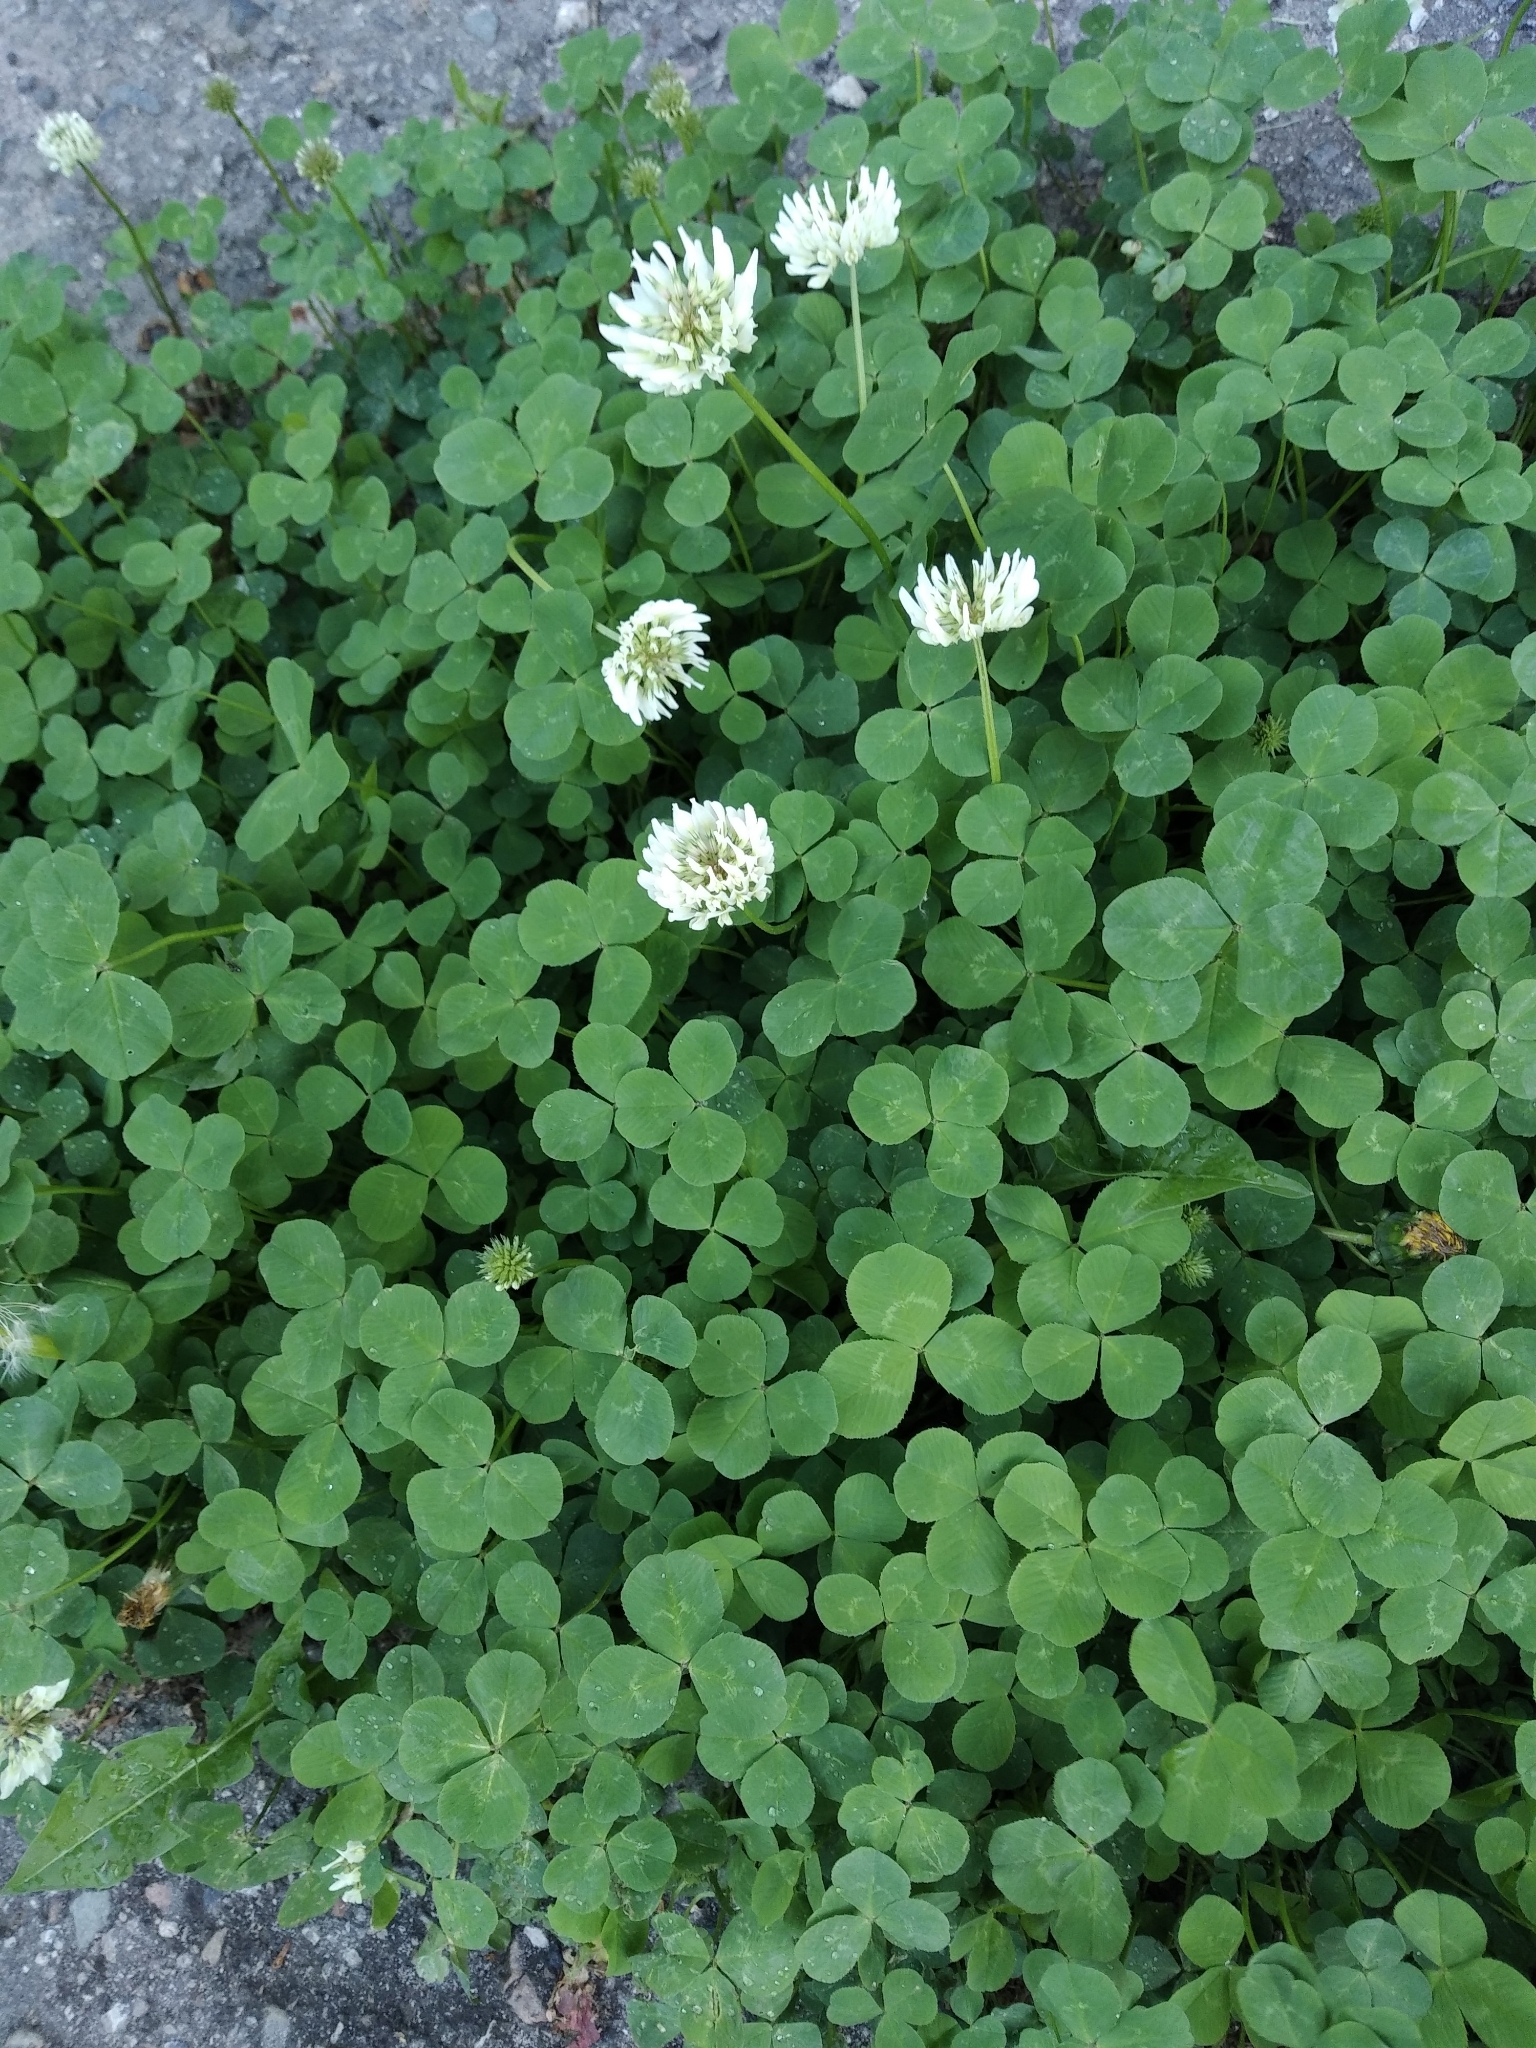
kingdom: Plantae
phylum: Tracheophyta
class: Magnoliopsida
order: Fabales
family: Fabaceae
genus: Trifolium
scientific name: Trifolium repens
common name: White clover
